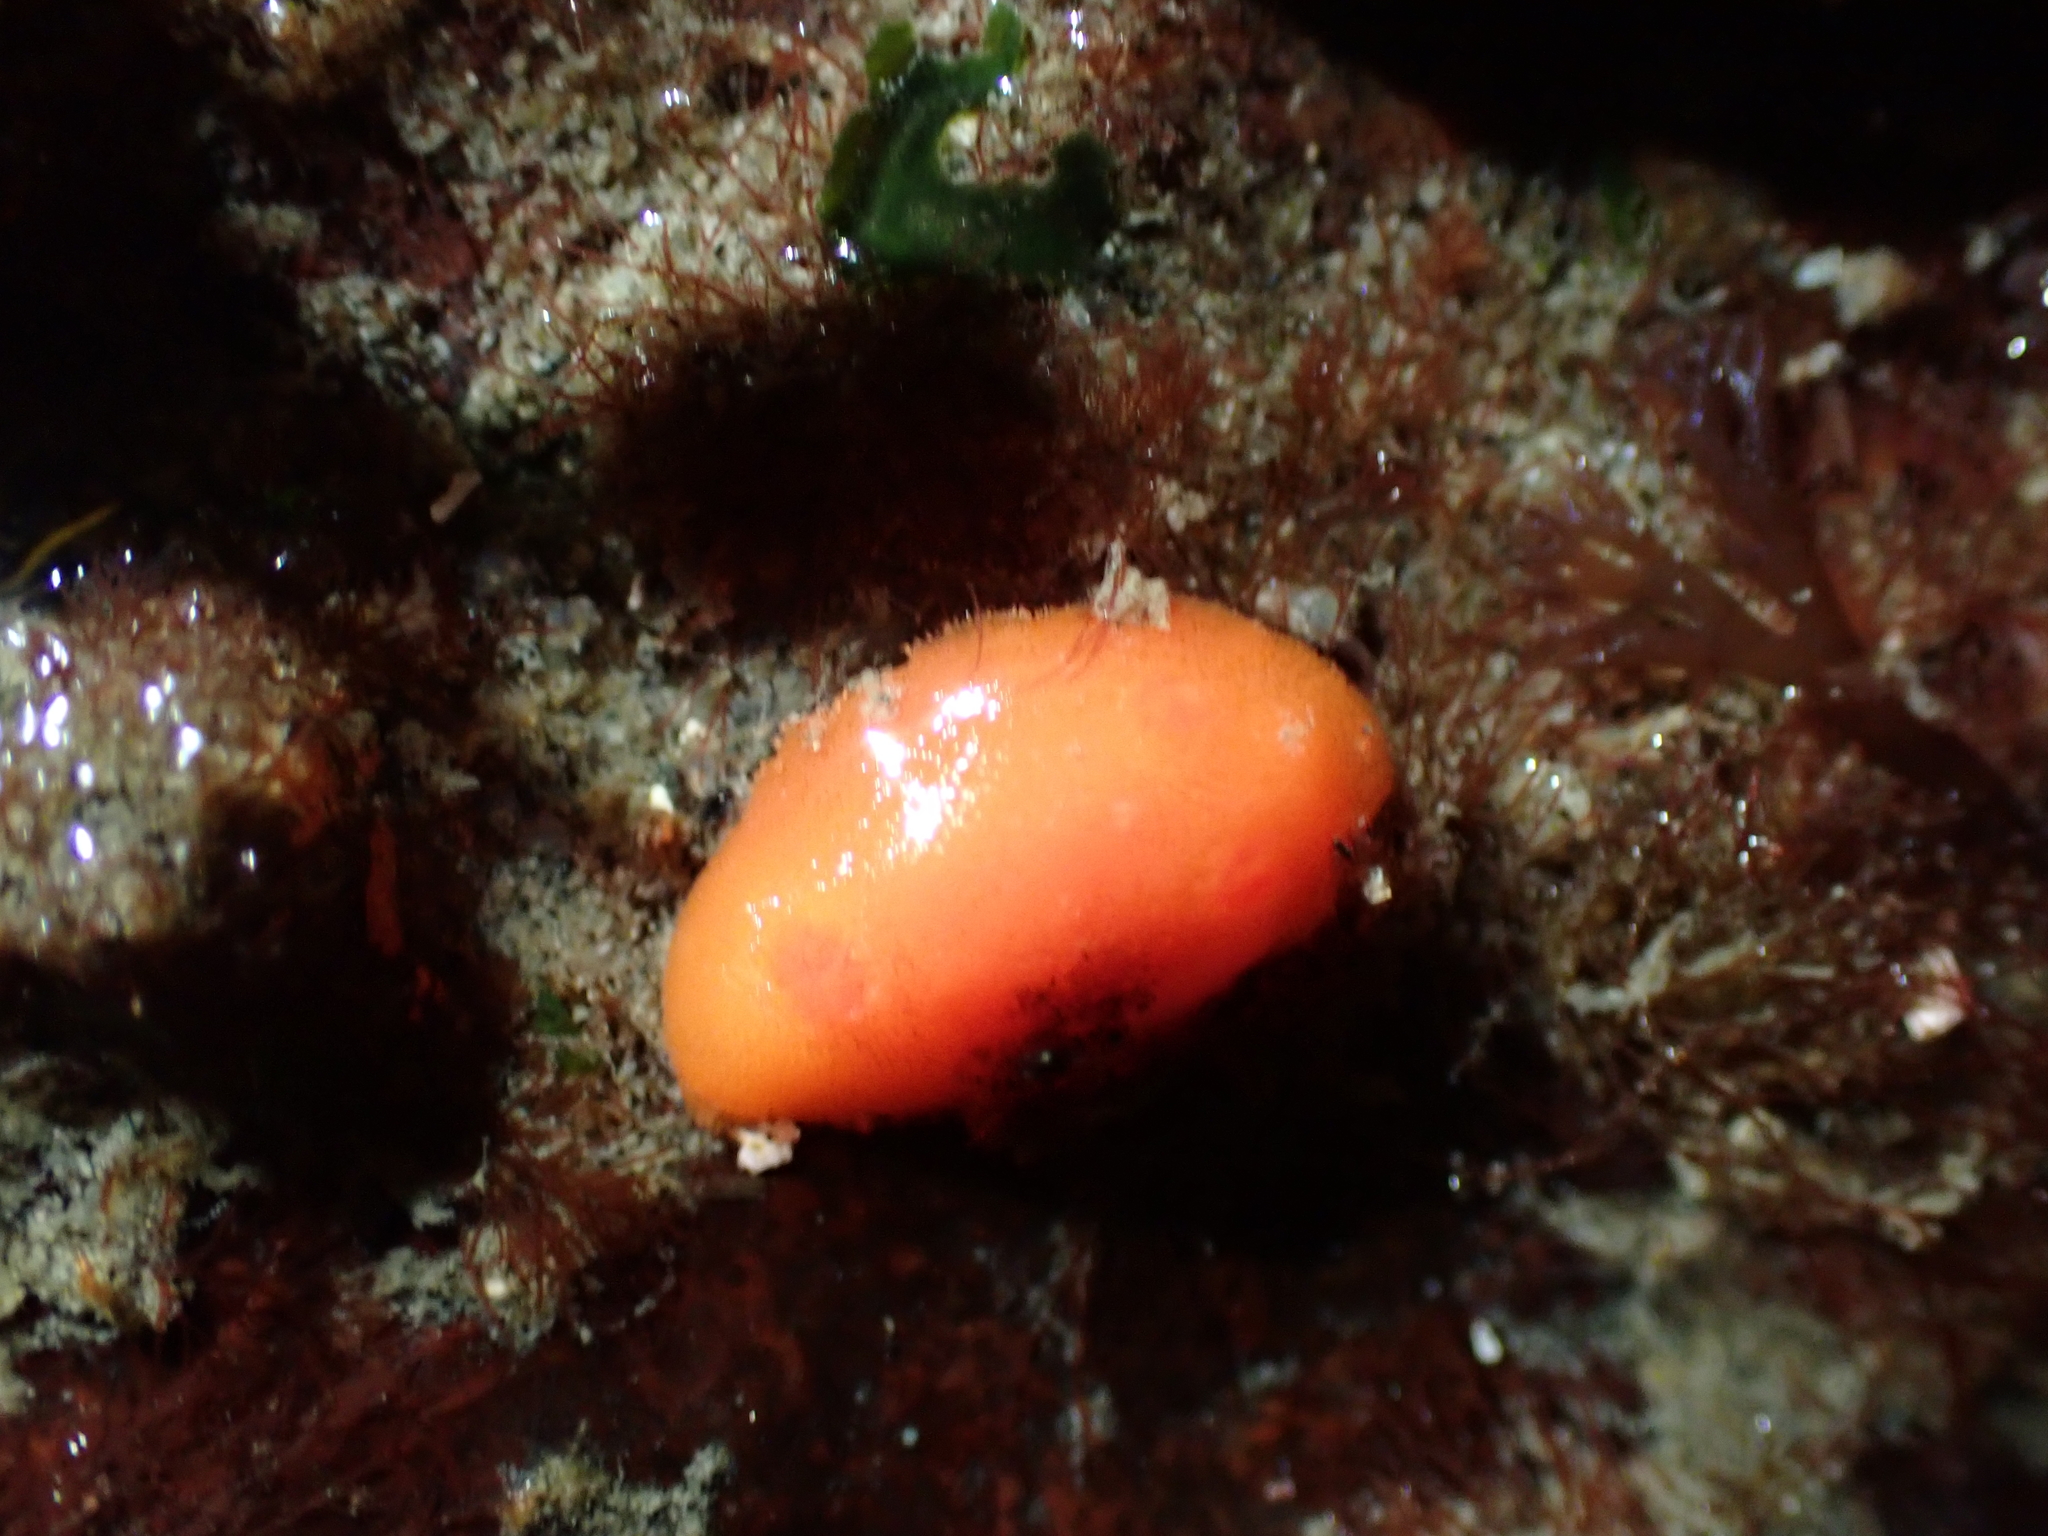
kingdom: Animalia
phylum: Mollusca
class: Gastropoda
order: Nudibranchia
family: Discodorididae
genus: Rostanga
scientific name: Rostanga pulchra
